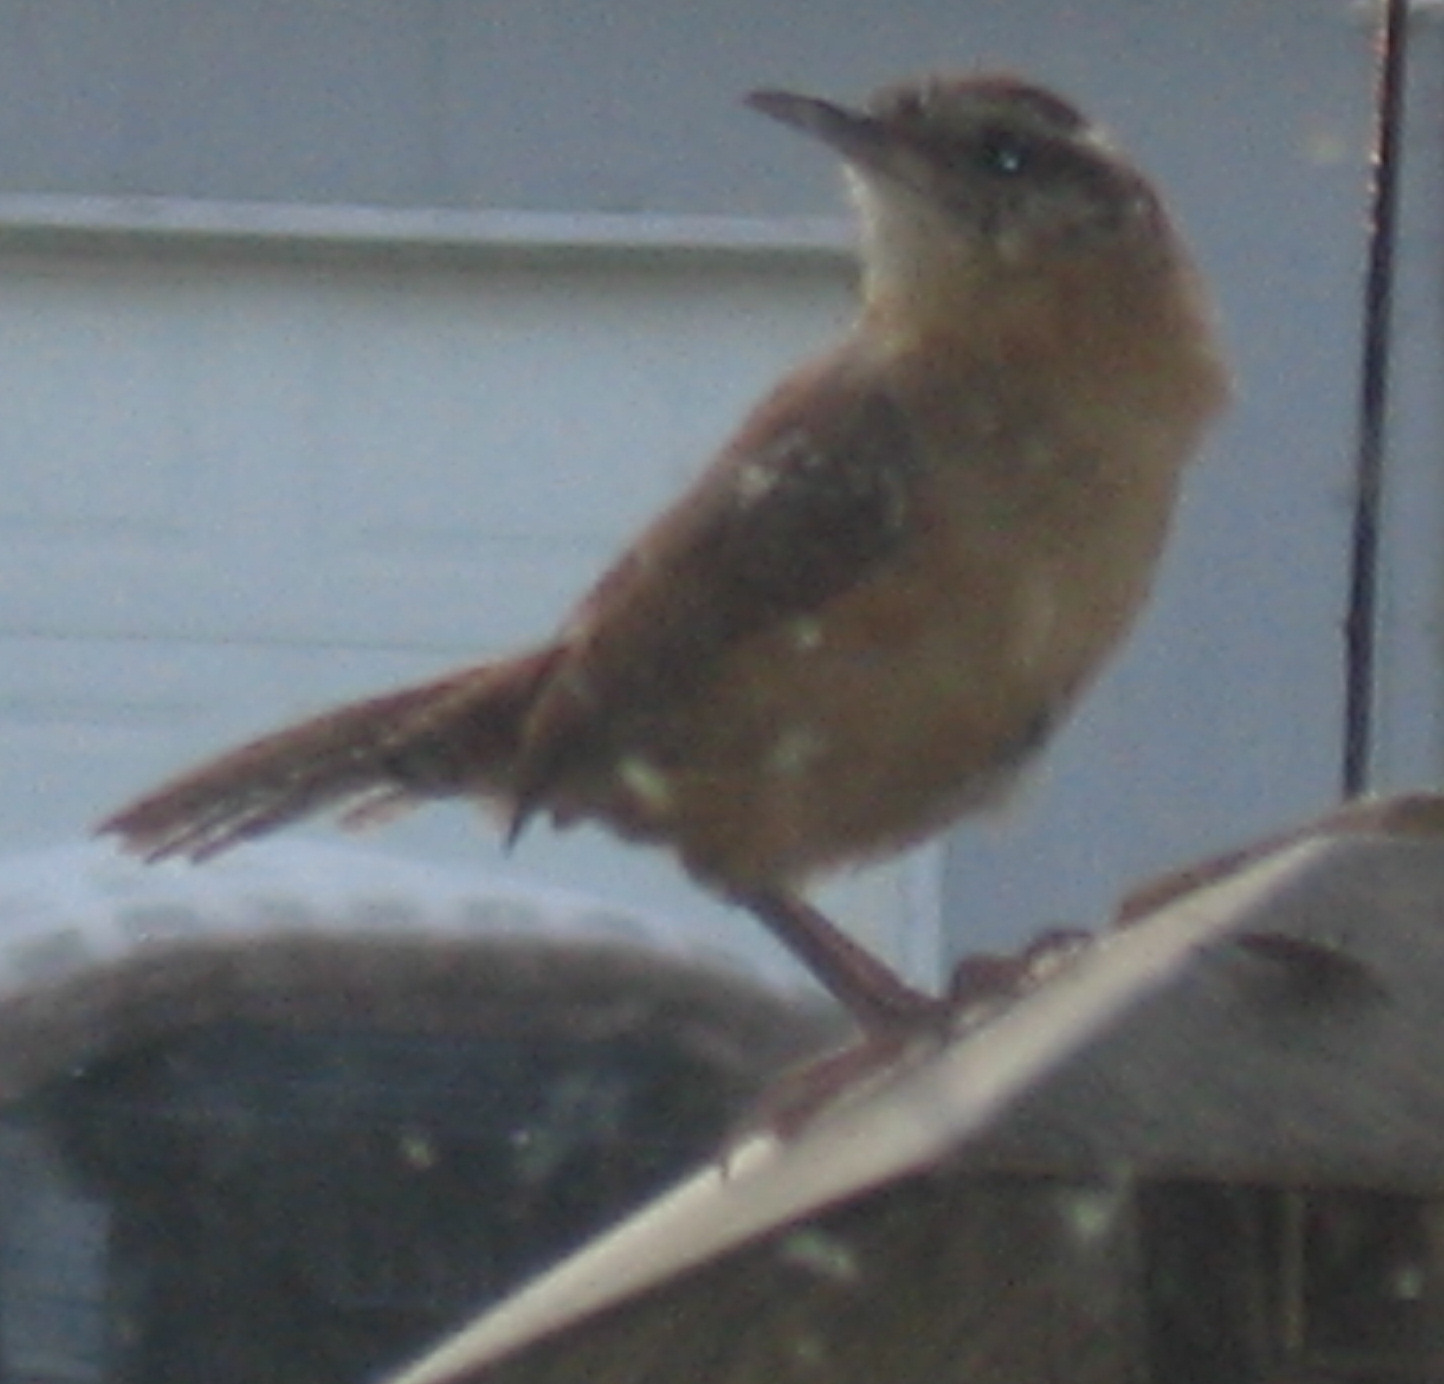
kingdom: Animalia
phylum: Chordata
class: Aves
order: Passeriformes
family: Troglodytidae
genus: Thryothorus
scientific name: Thryothorus ludovicianus
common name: Carolina wren
